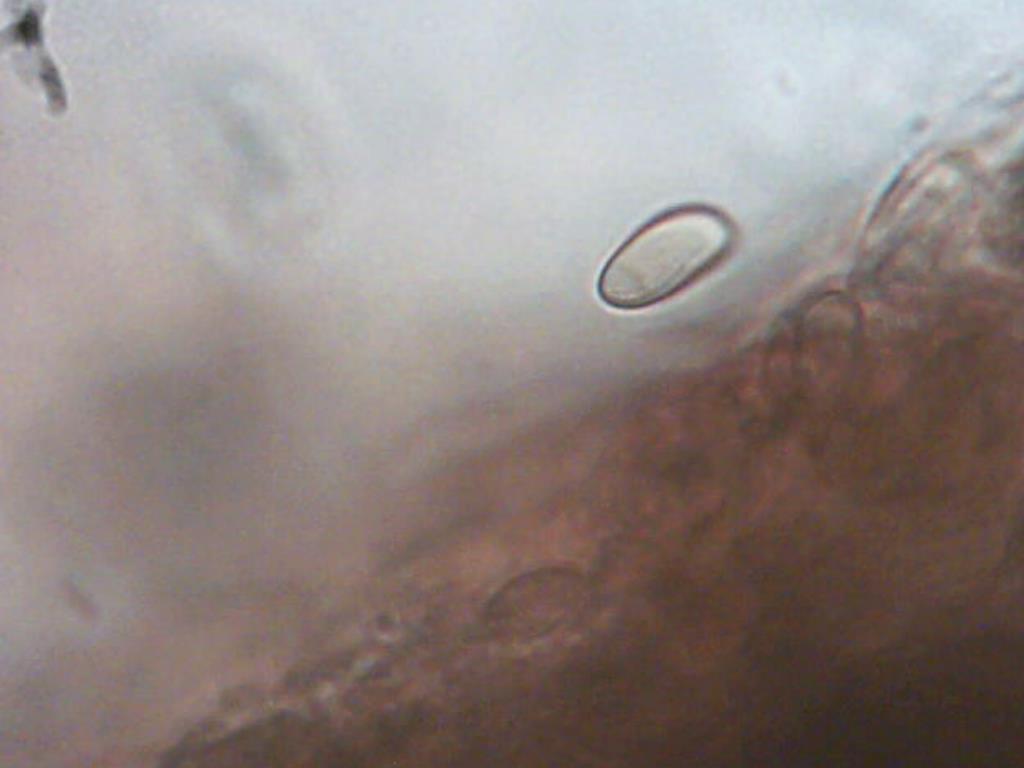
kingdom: Fungi
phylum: Basidiomycota
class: Agaricomycetes
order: Boletales
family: Boletaceae
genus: Tylopilus
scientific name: Tylopilus atronicotianus
